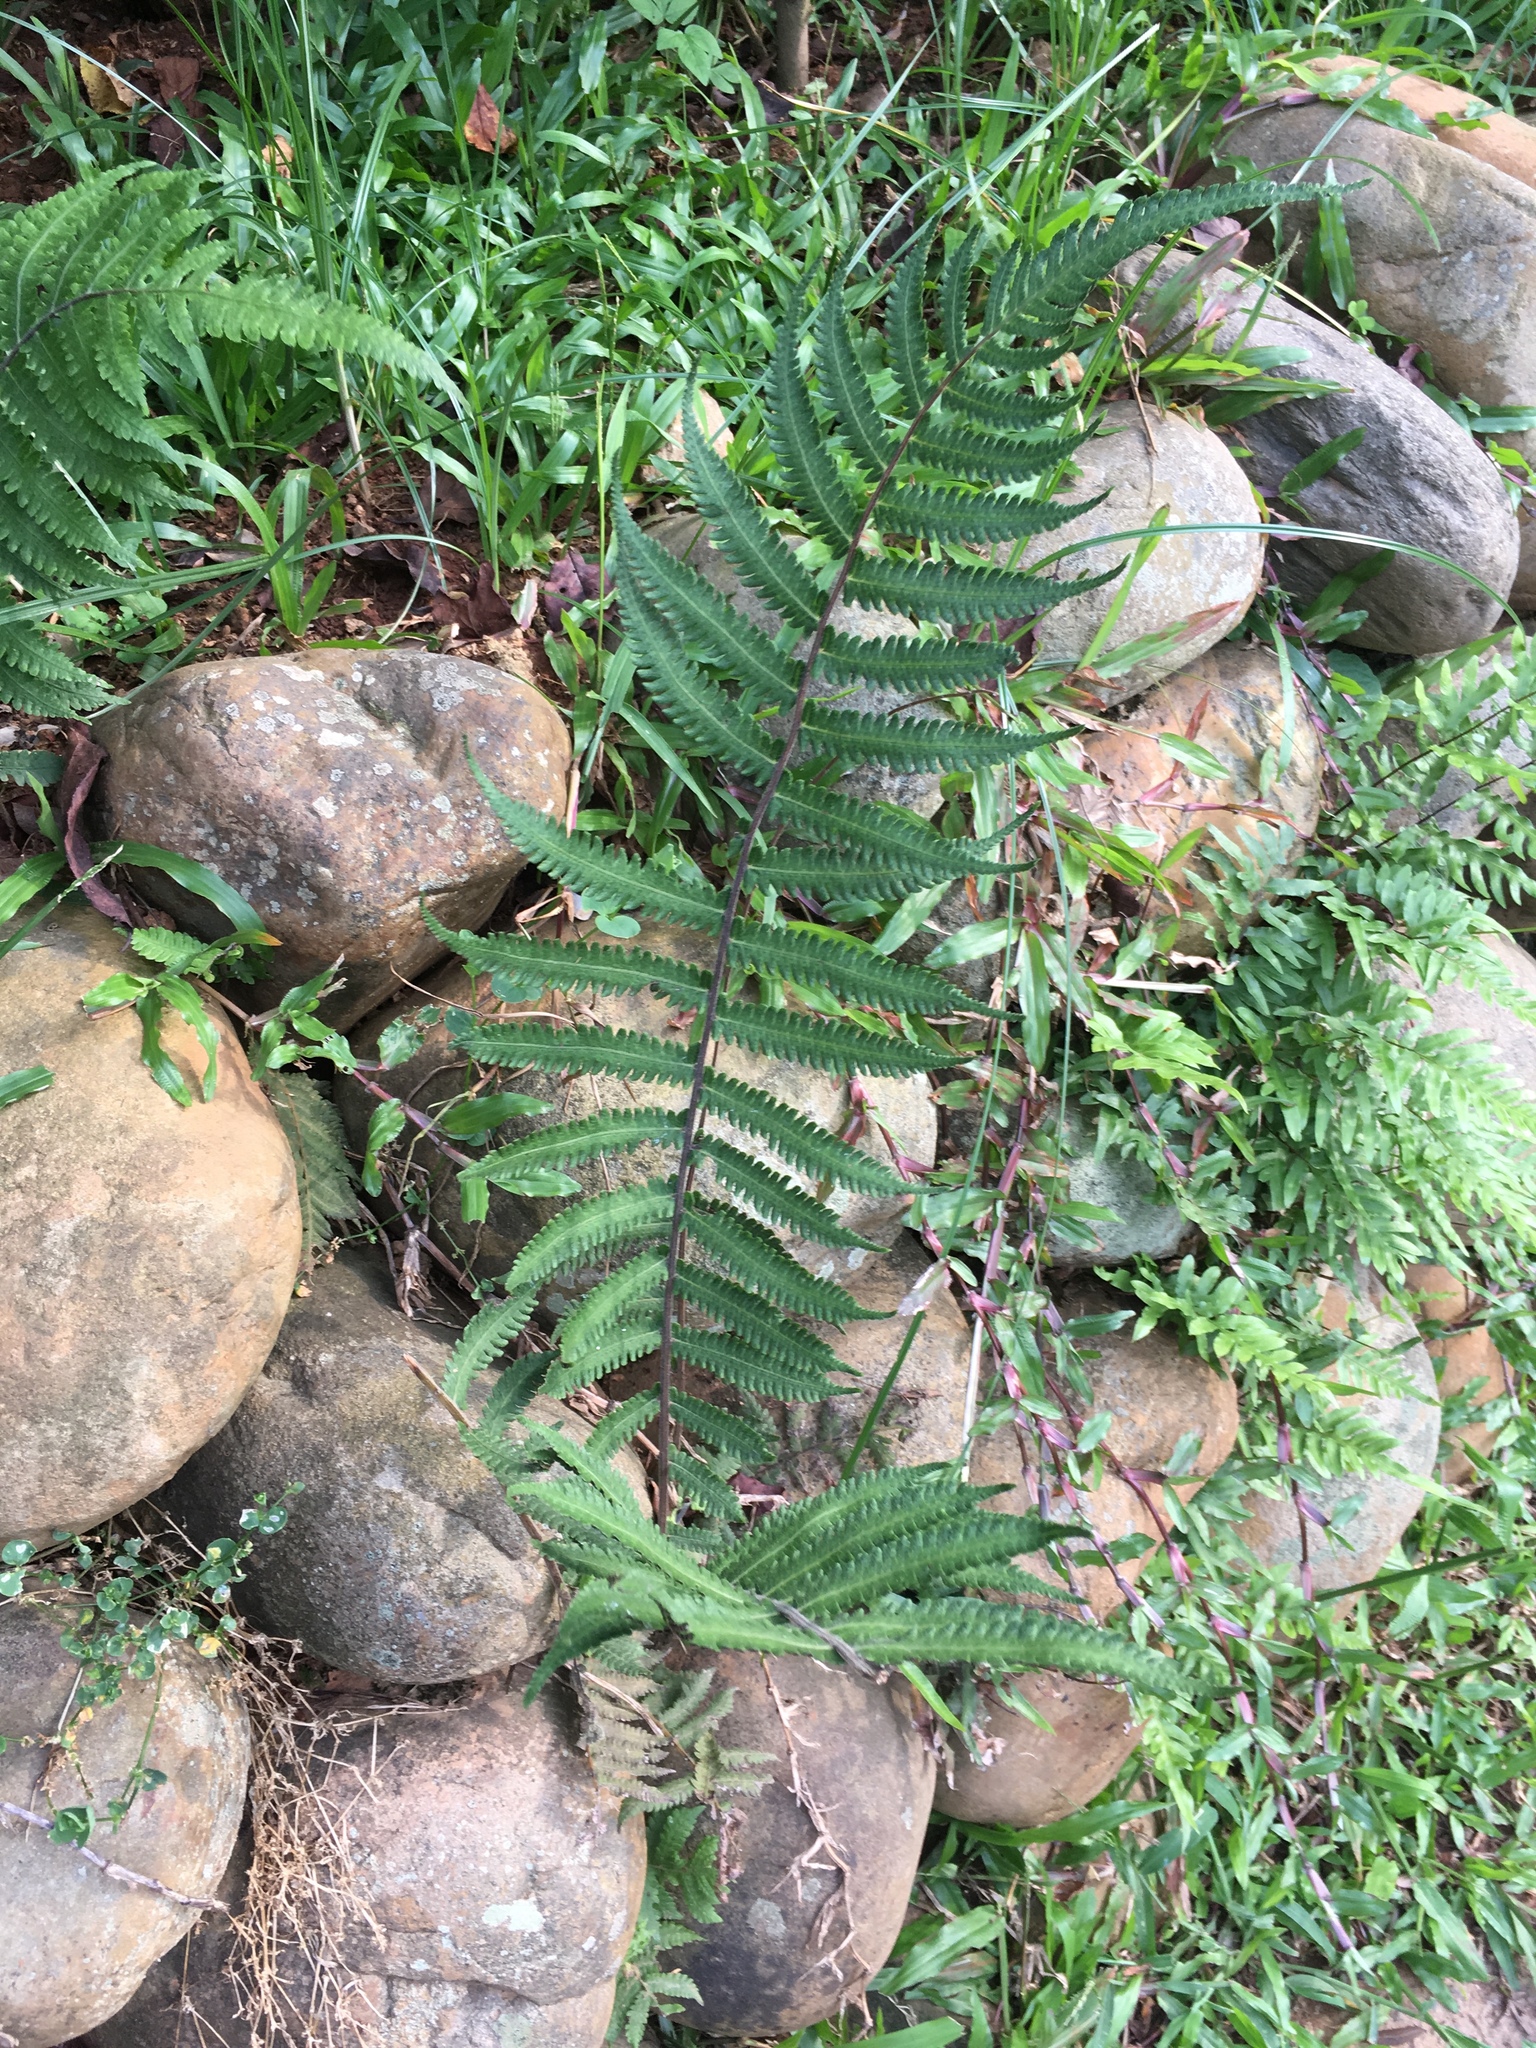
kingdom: Plantae
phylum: Tracheophyta
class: Polypodiopsida
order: Polypodiales
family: Thelypteridaceae
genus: Christella
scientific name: Christella dentata
